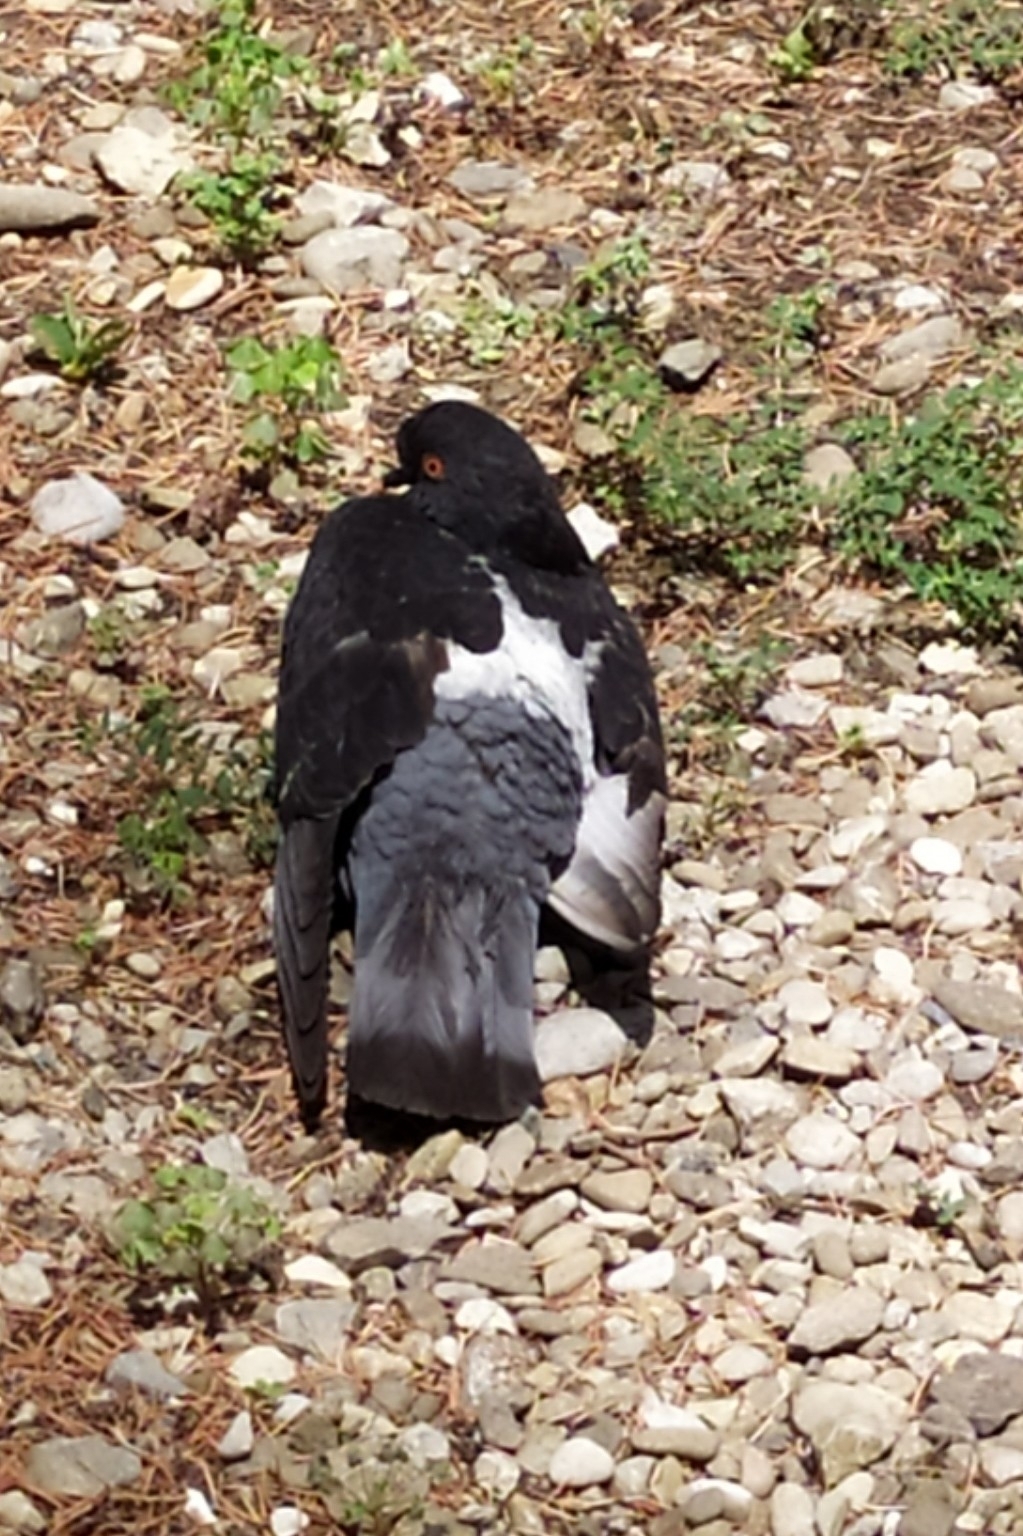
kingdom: Animalia
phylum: Chordata
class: Aves
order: Columbiformes
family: Columbidae
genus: Columba
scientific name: Columba livia
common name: Rock pigeon
